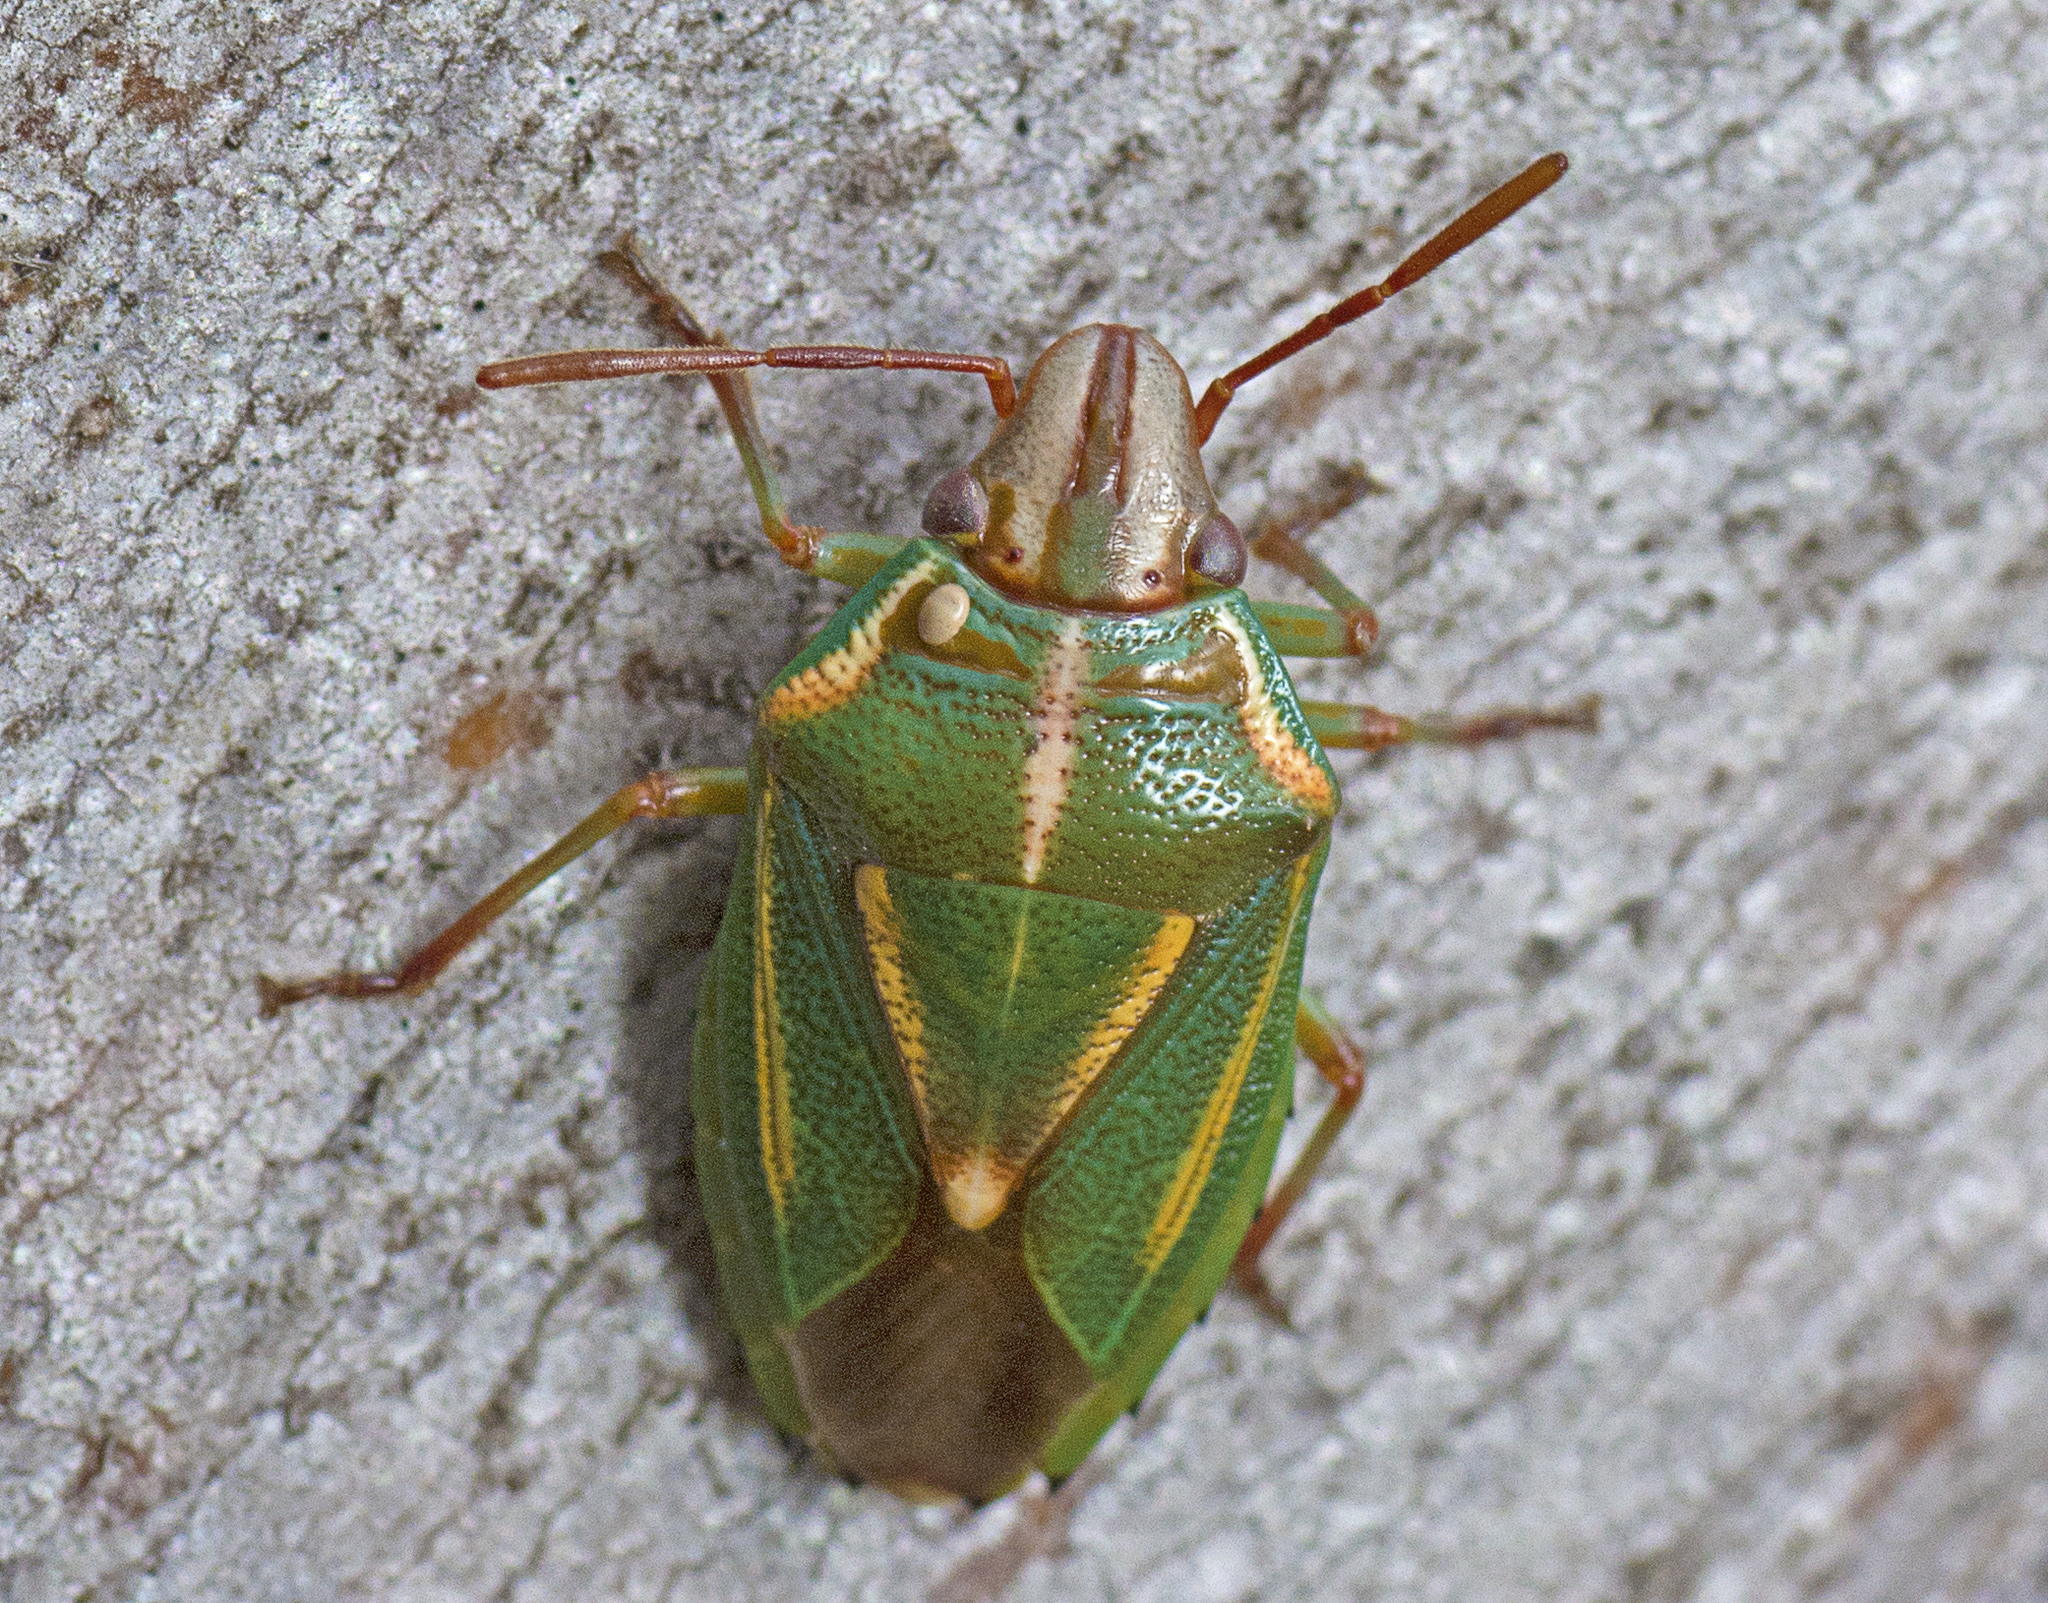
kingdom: Animalia
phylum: Arthropoda
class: Insecta
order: Hemiptera
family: Pentatomidae
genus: Diaphyta
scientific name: Diaphyta
